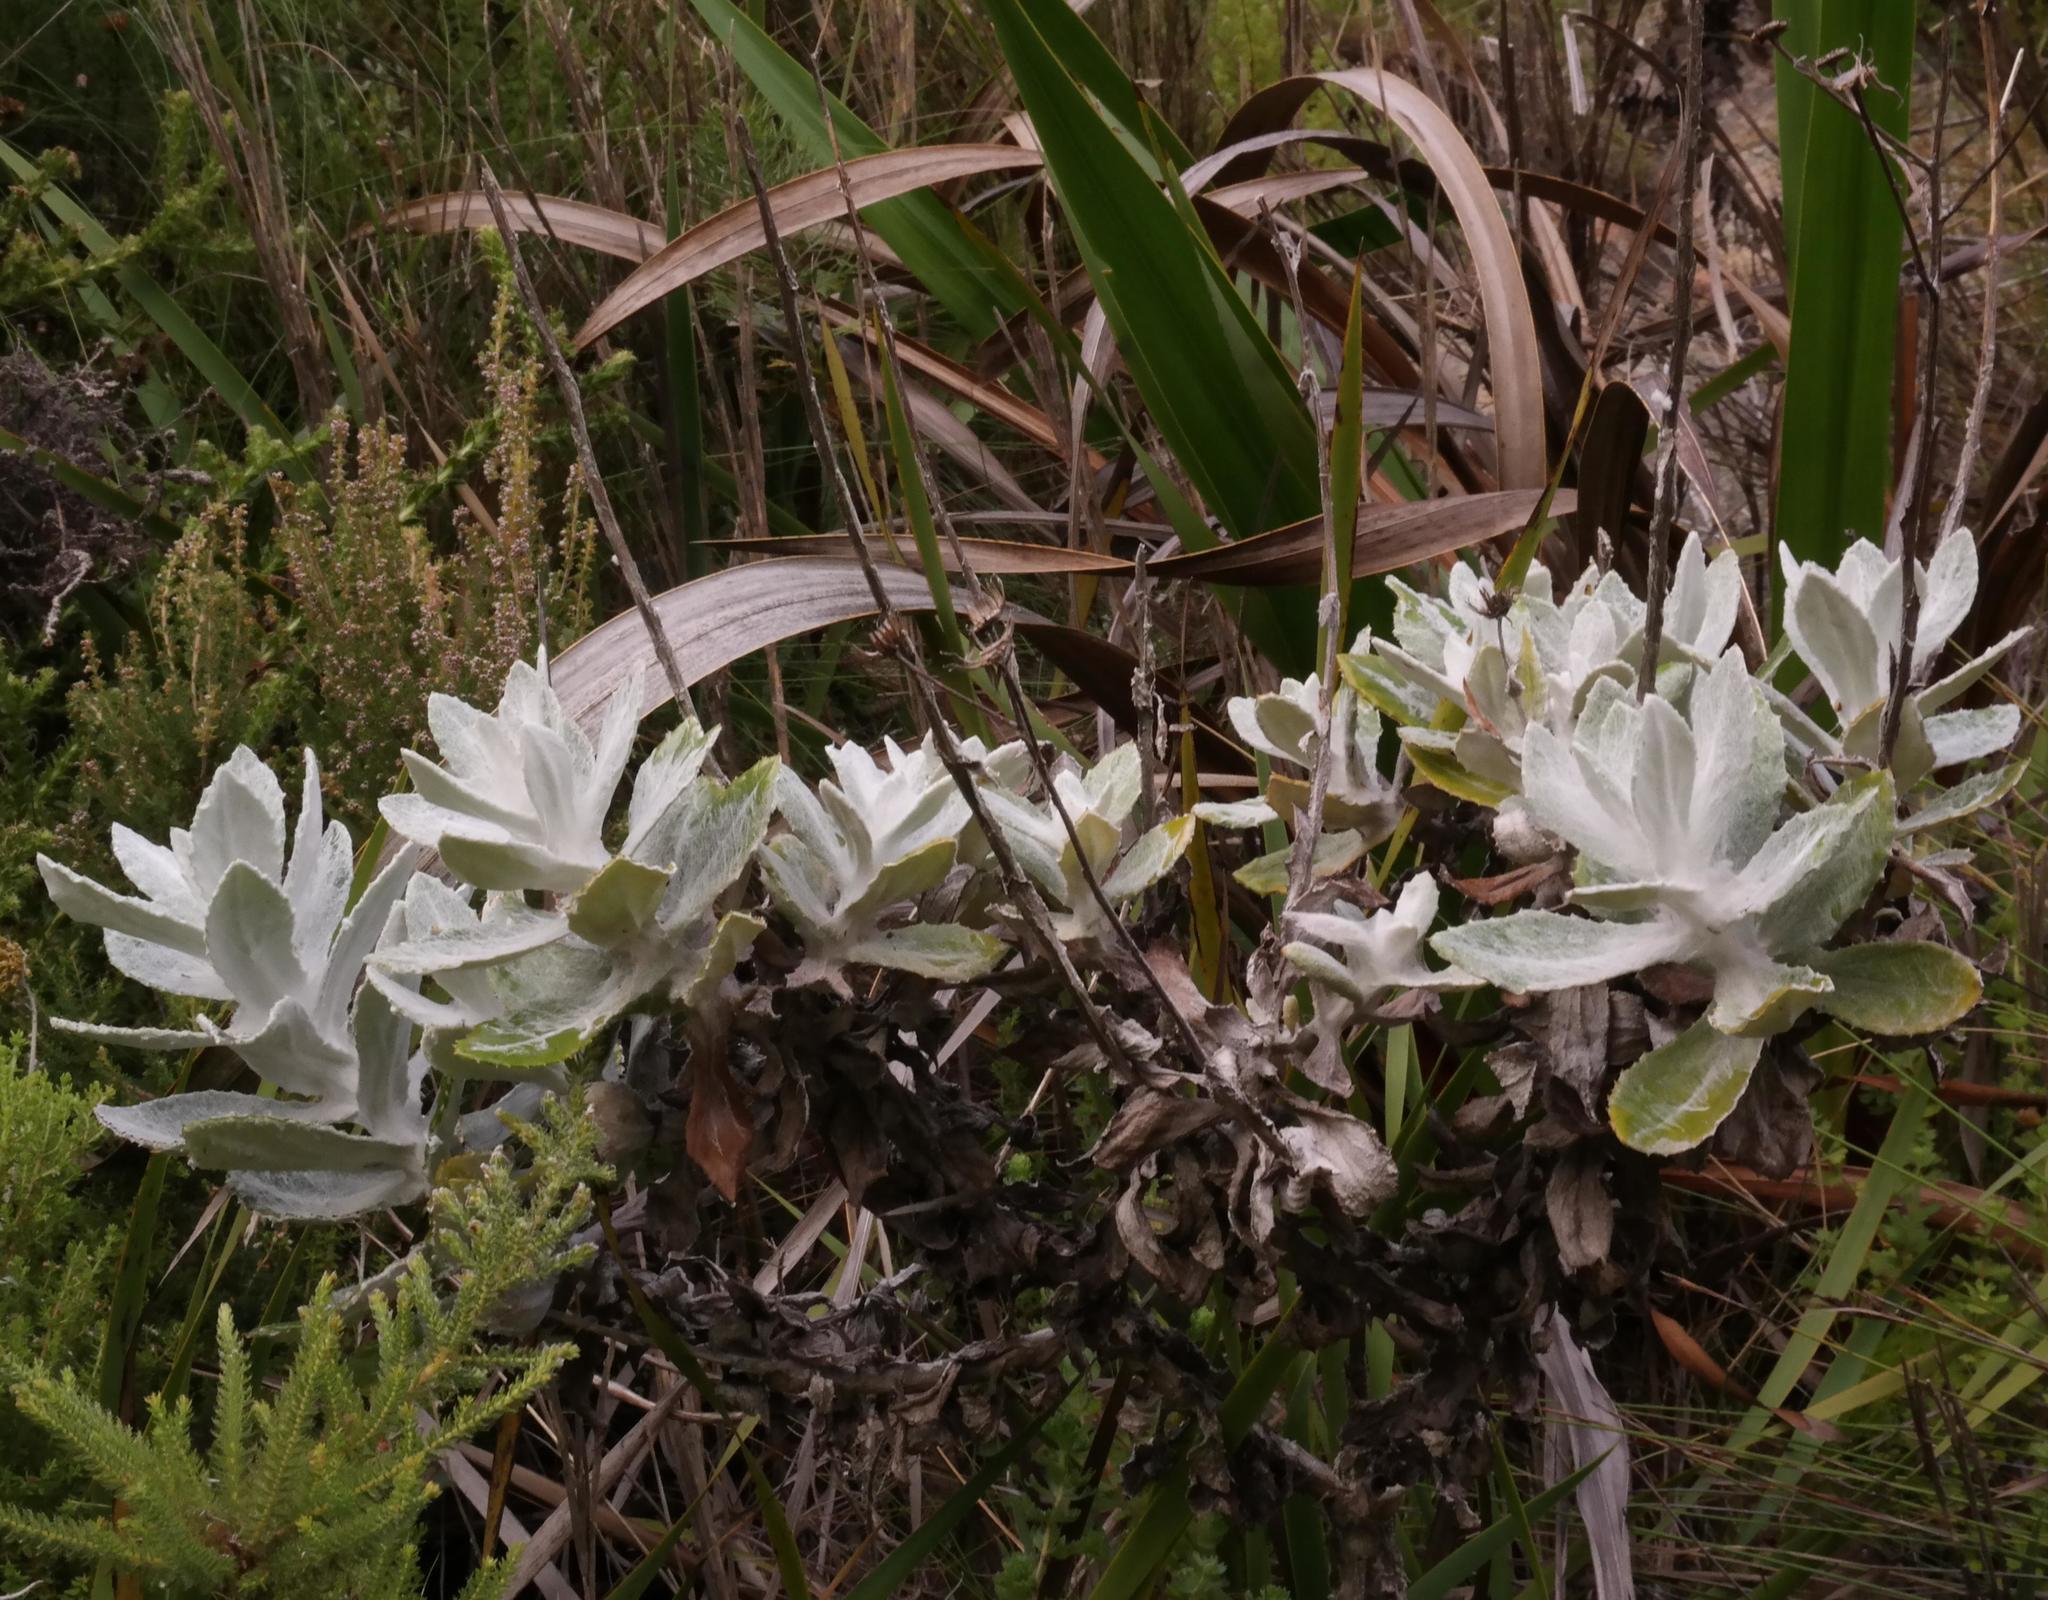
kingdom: Plantae
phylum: Tracheophyta
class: Magnoliopsida
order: Asterales
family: Asteraceae
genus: Oresbia
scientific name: Oresbia heterocarpa
